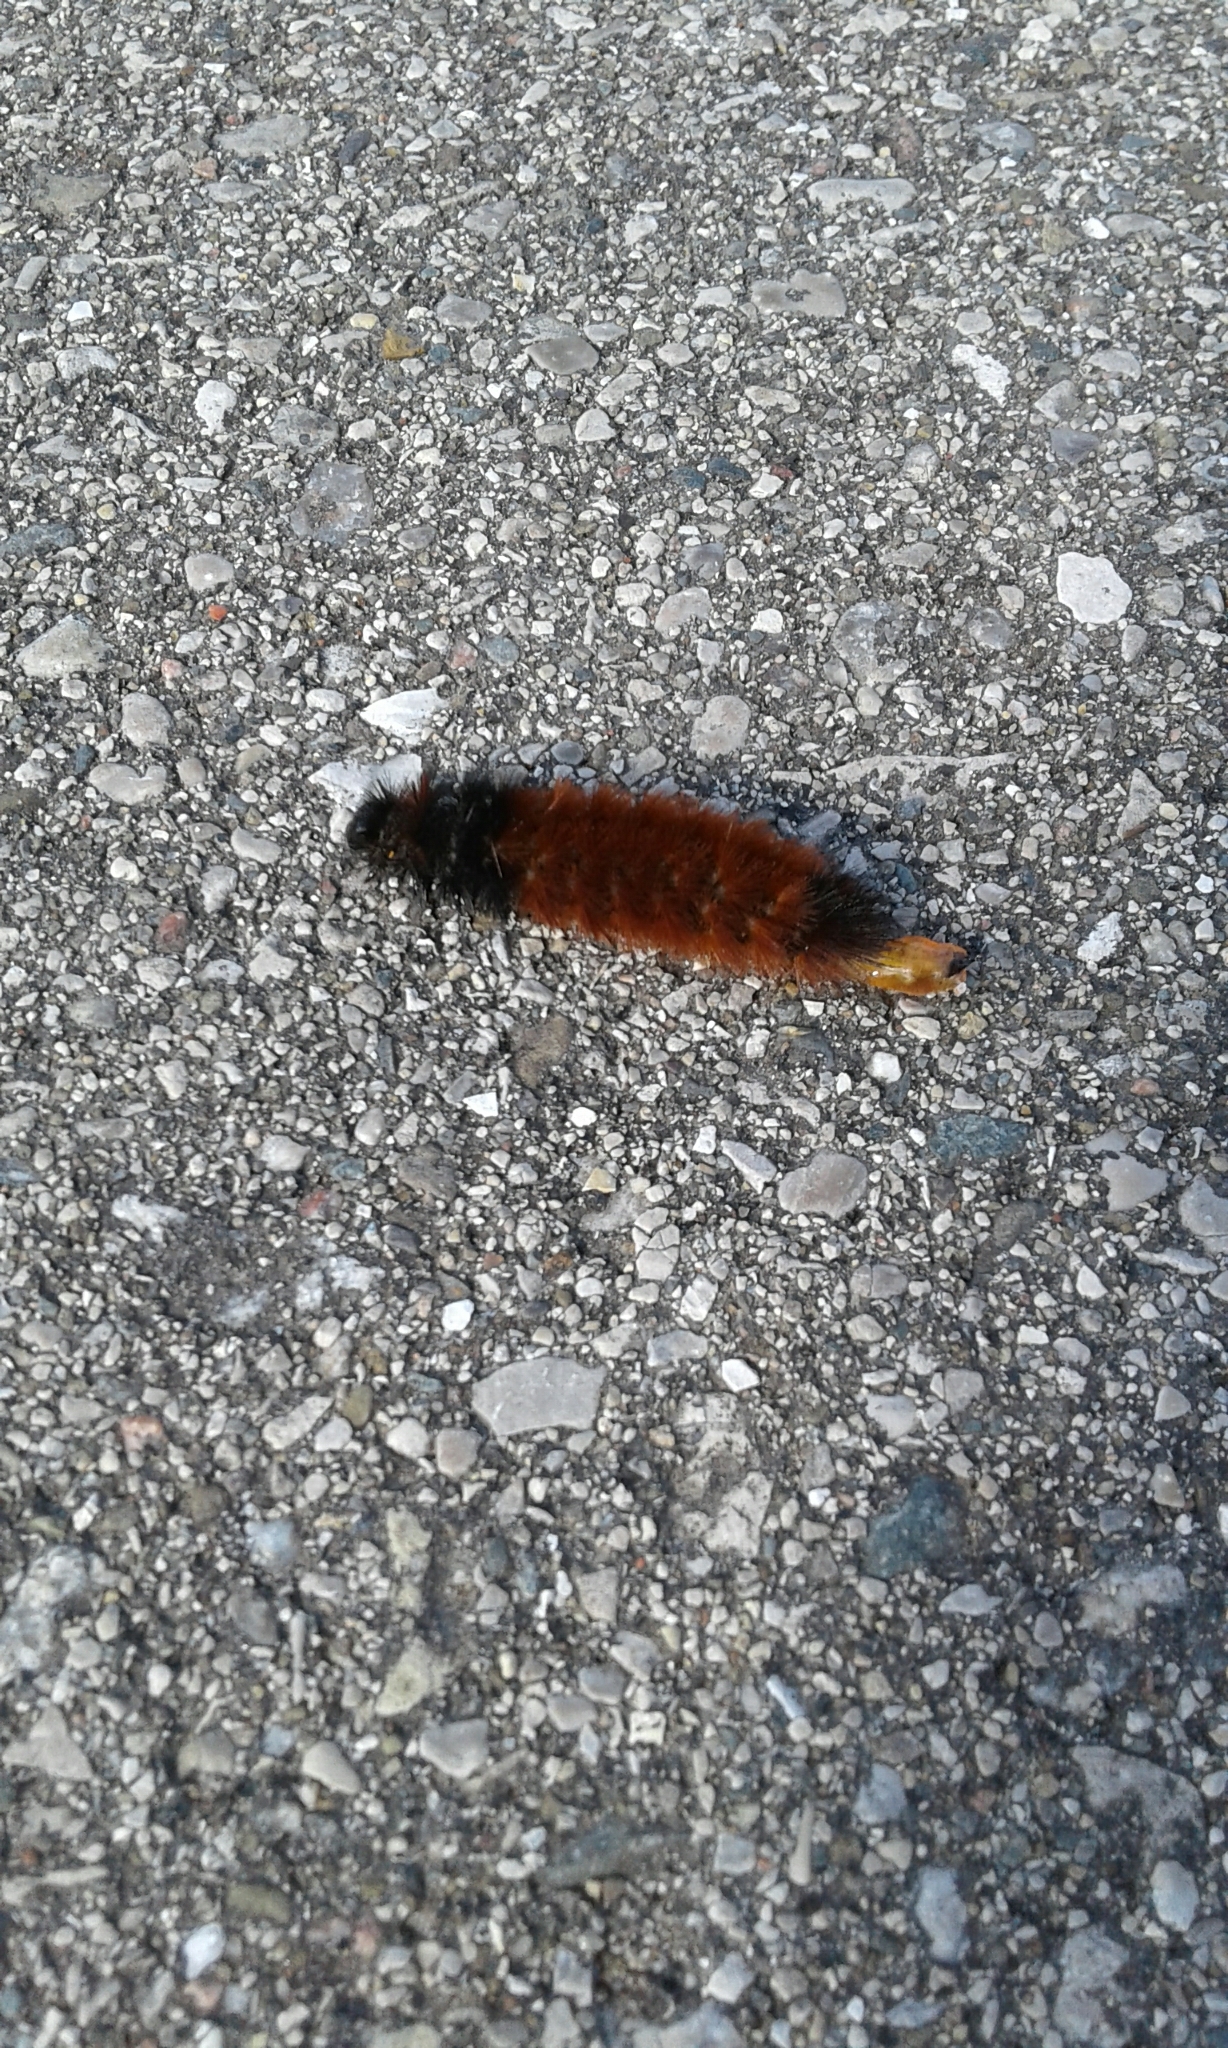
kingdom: Animalia
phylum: Arthropoda
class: Insecta
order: Lepidoptera
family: Erebidae
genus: Pyrrharctia
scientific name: Pyrrharctia isabella
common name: Isabella tiger moth
